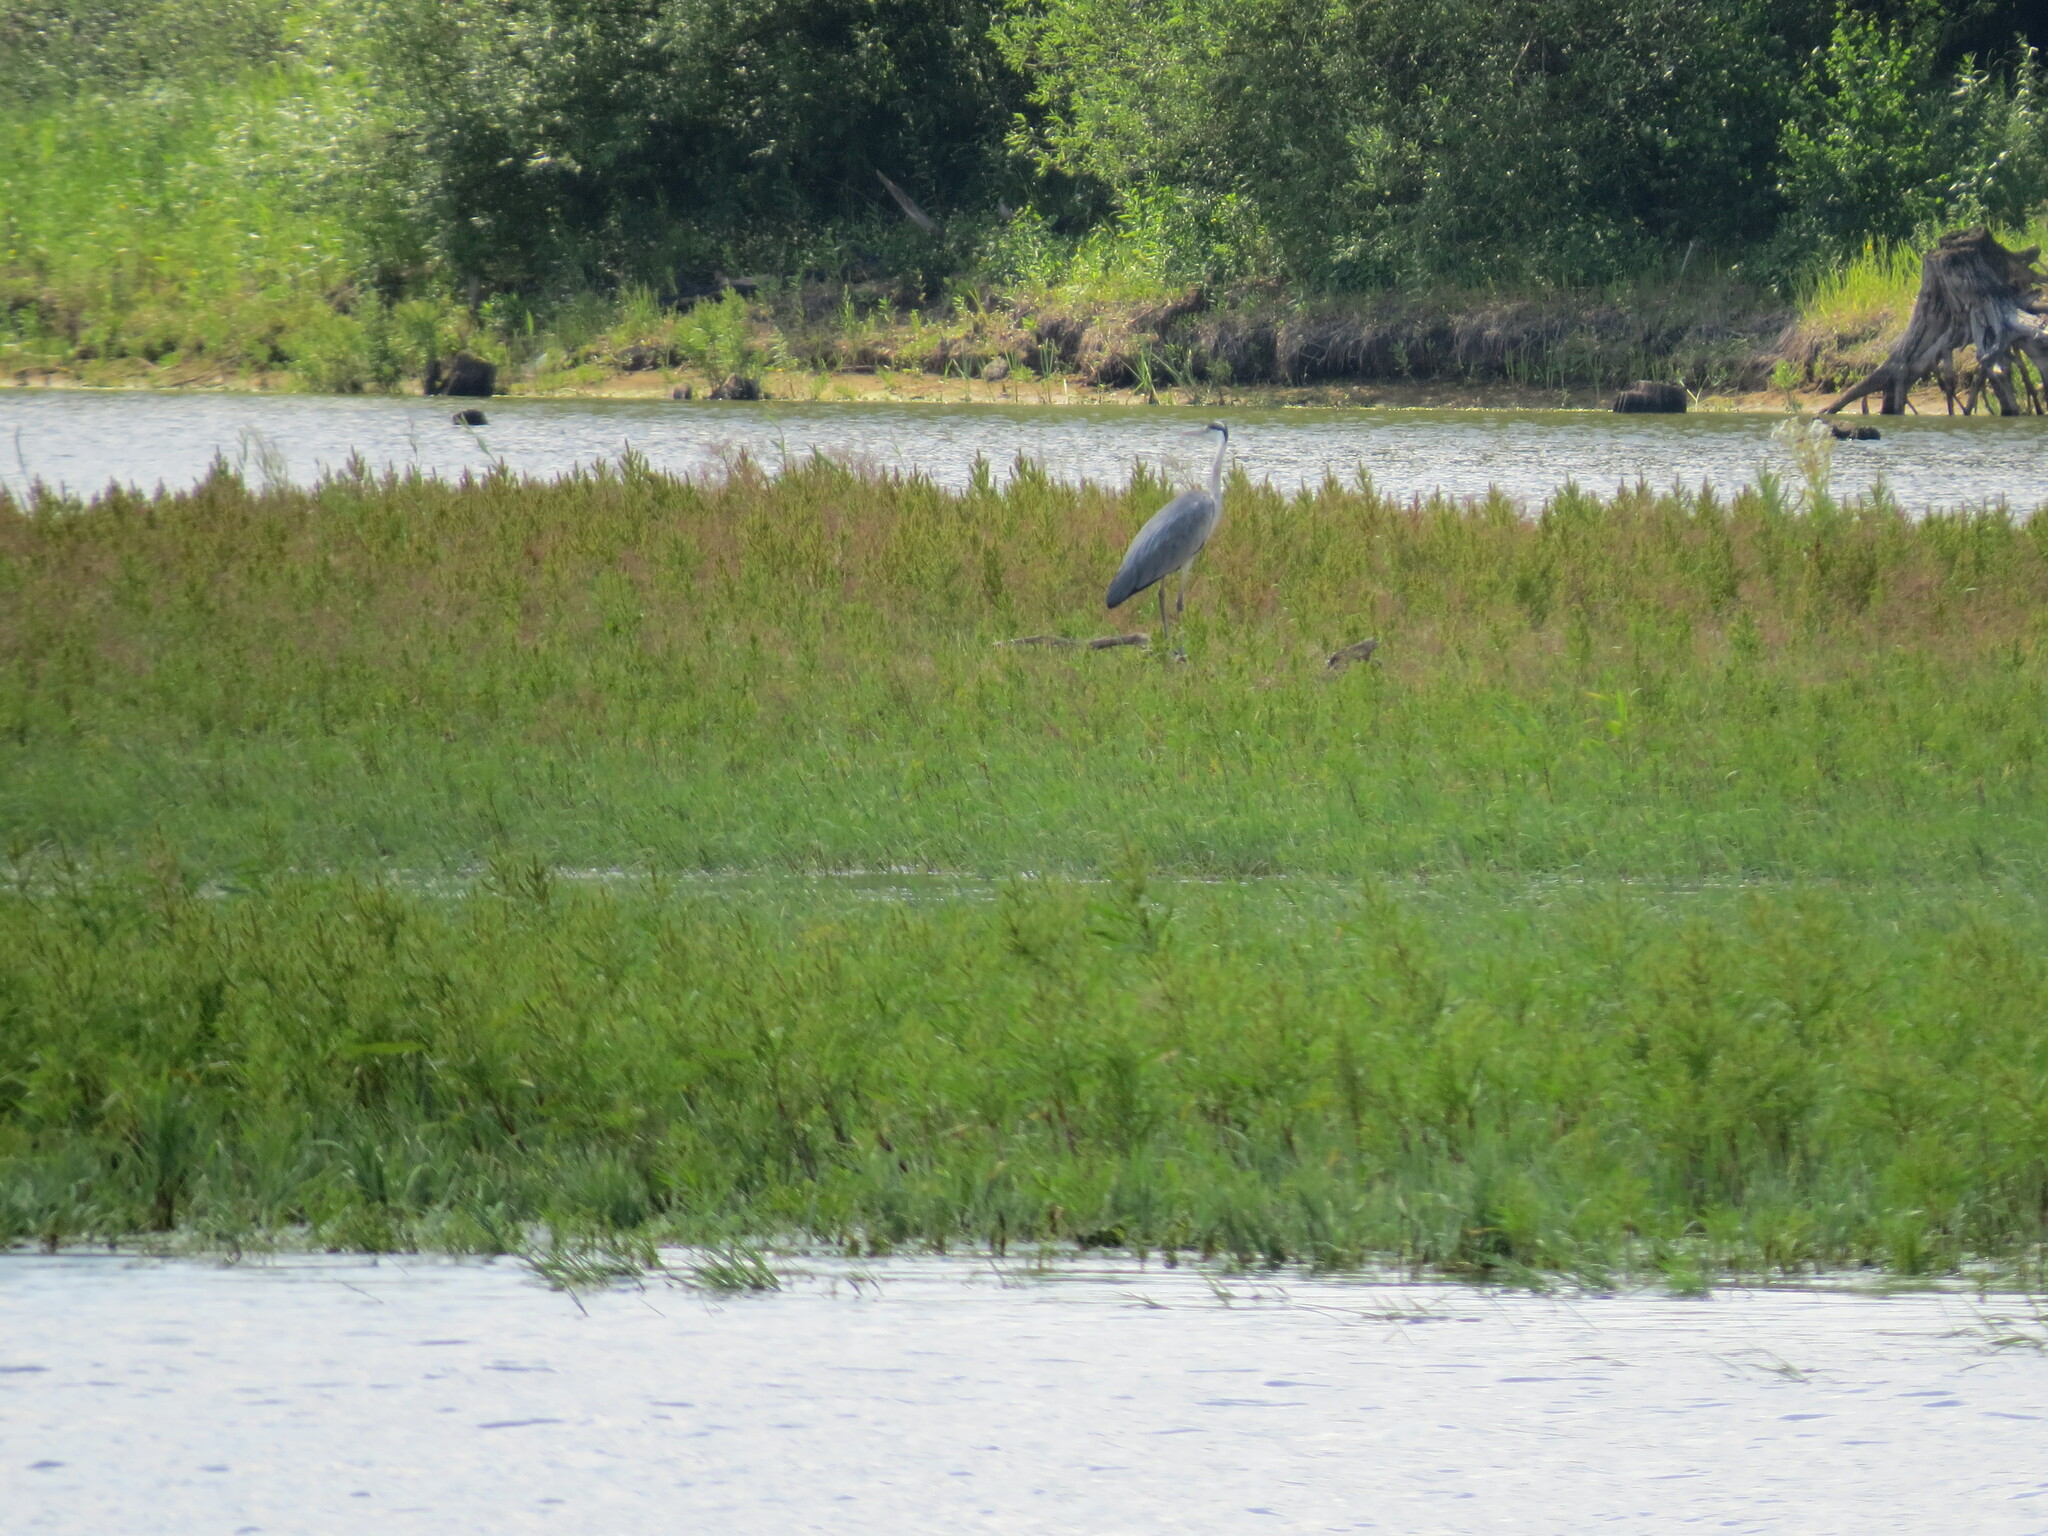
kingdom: Animalia
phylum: Chordata
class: Aves
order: Pelecaniformes
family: Ardeidae
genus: Ardea
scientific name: Ardea cinerea
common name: Grey heron
